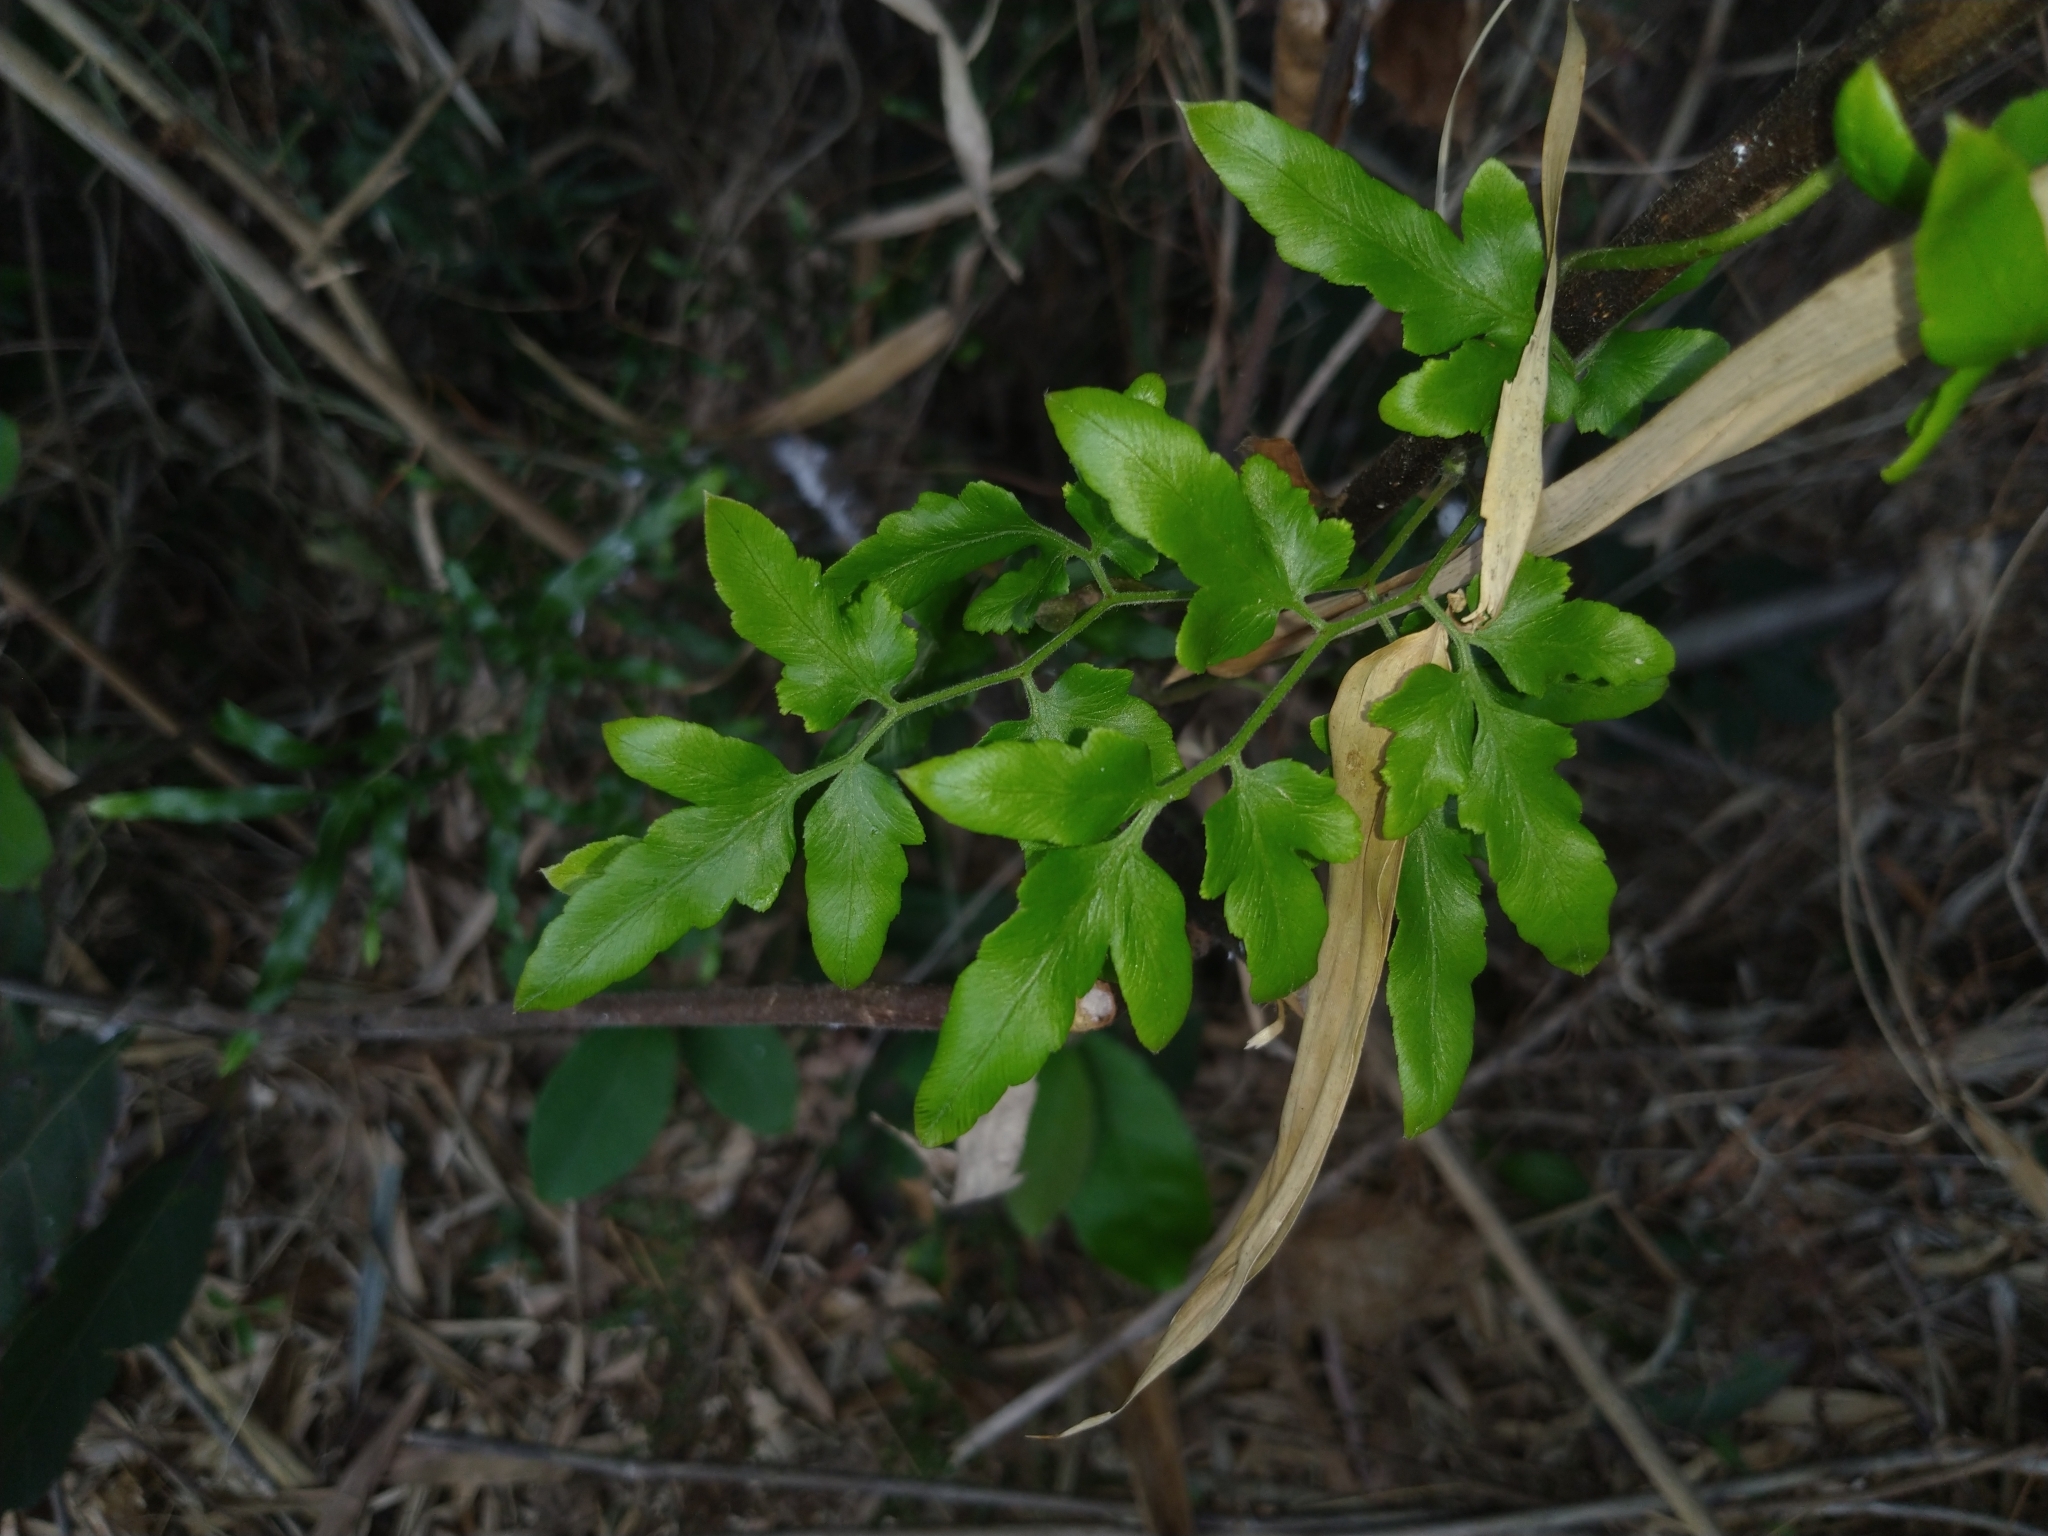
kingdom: Plantae
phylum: Tracheophyta
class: Polypodiopsida
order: Schizaeales
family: Lygodiaceae
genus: Lygodium
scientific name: Lygodium japonicum
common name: Japanese climbing fern
